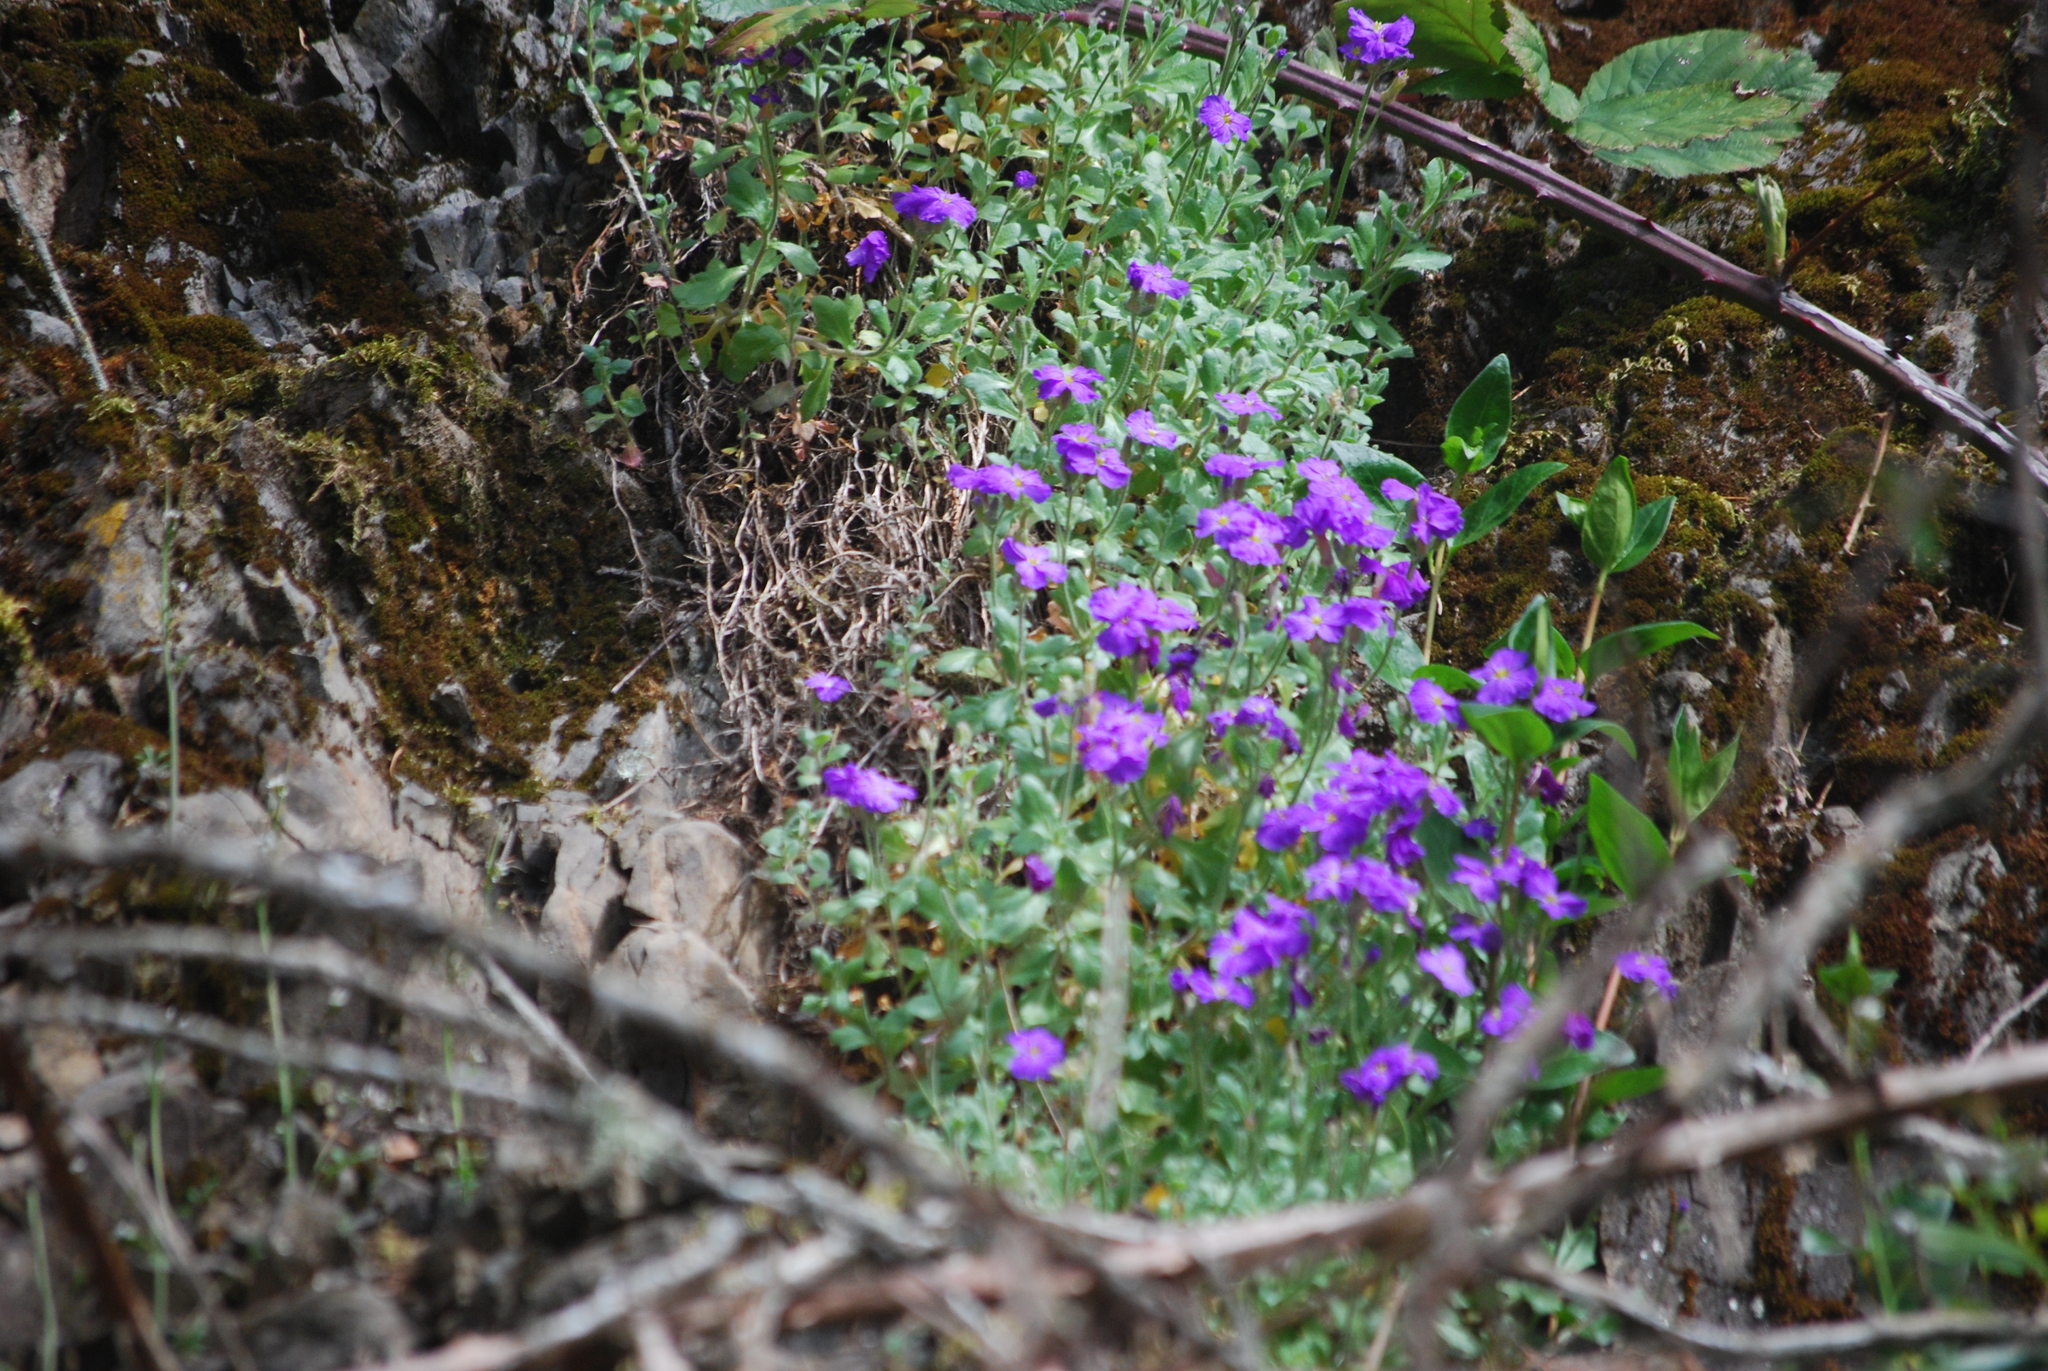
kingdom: Plantae
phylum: Tracheophyta
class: Magnoliopsida
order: Brassicales
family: Brassicaceae
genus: Aubrieta
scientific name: Aubrieta deltoidea
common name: Aubretia
